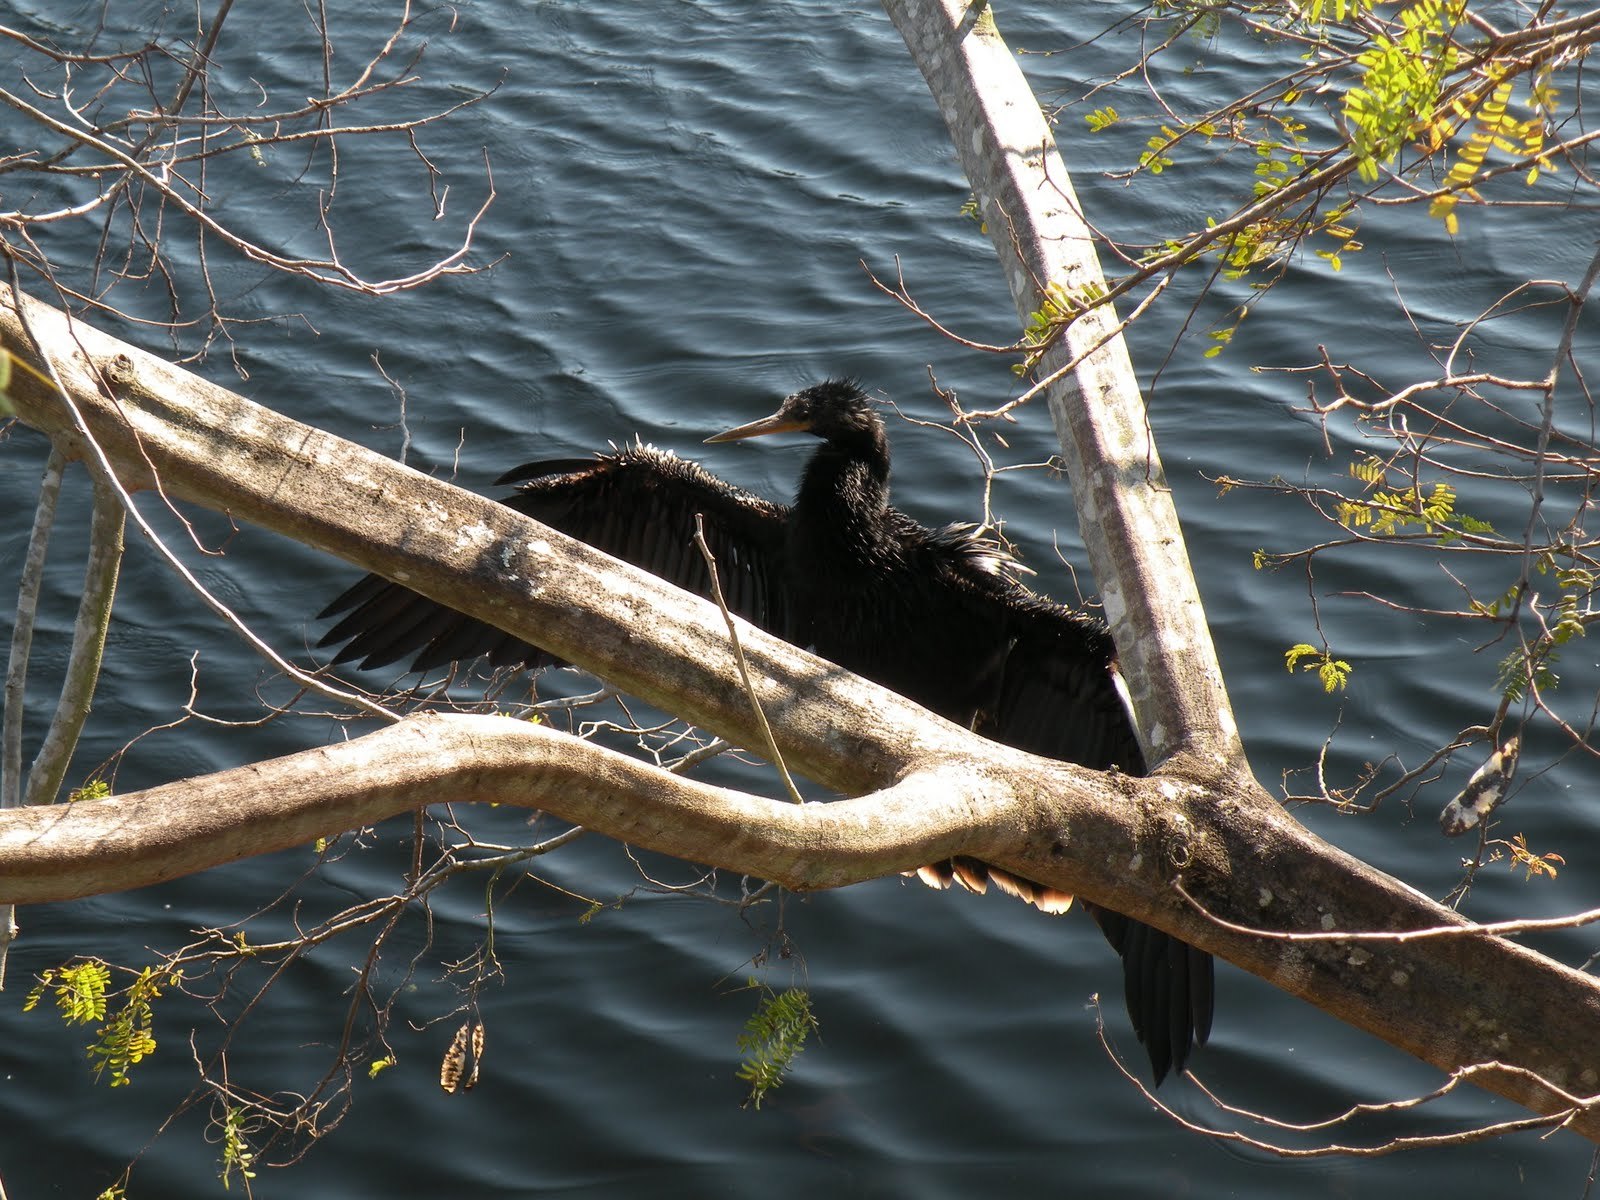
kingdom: Animalia
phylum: Chordata
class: Aves
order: Suliformes
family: Anhingidae
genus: Anhinga
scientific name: Anhinga anhinga
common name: Anhinga
